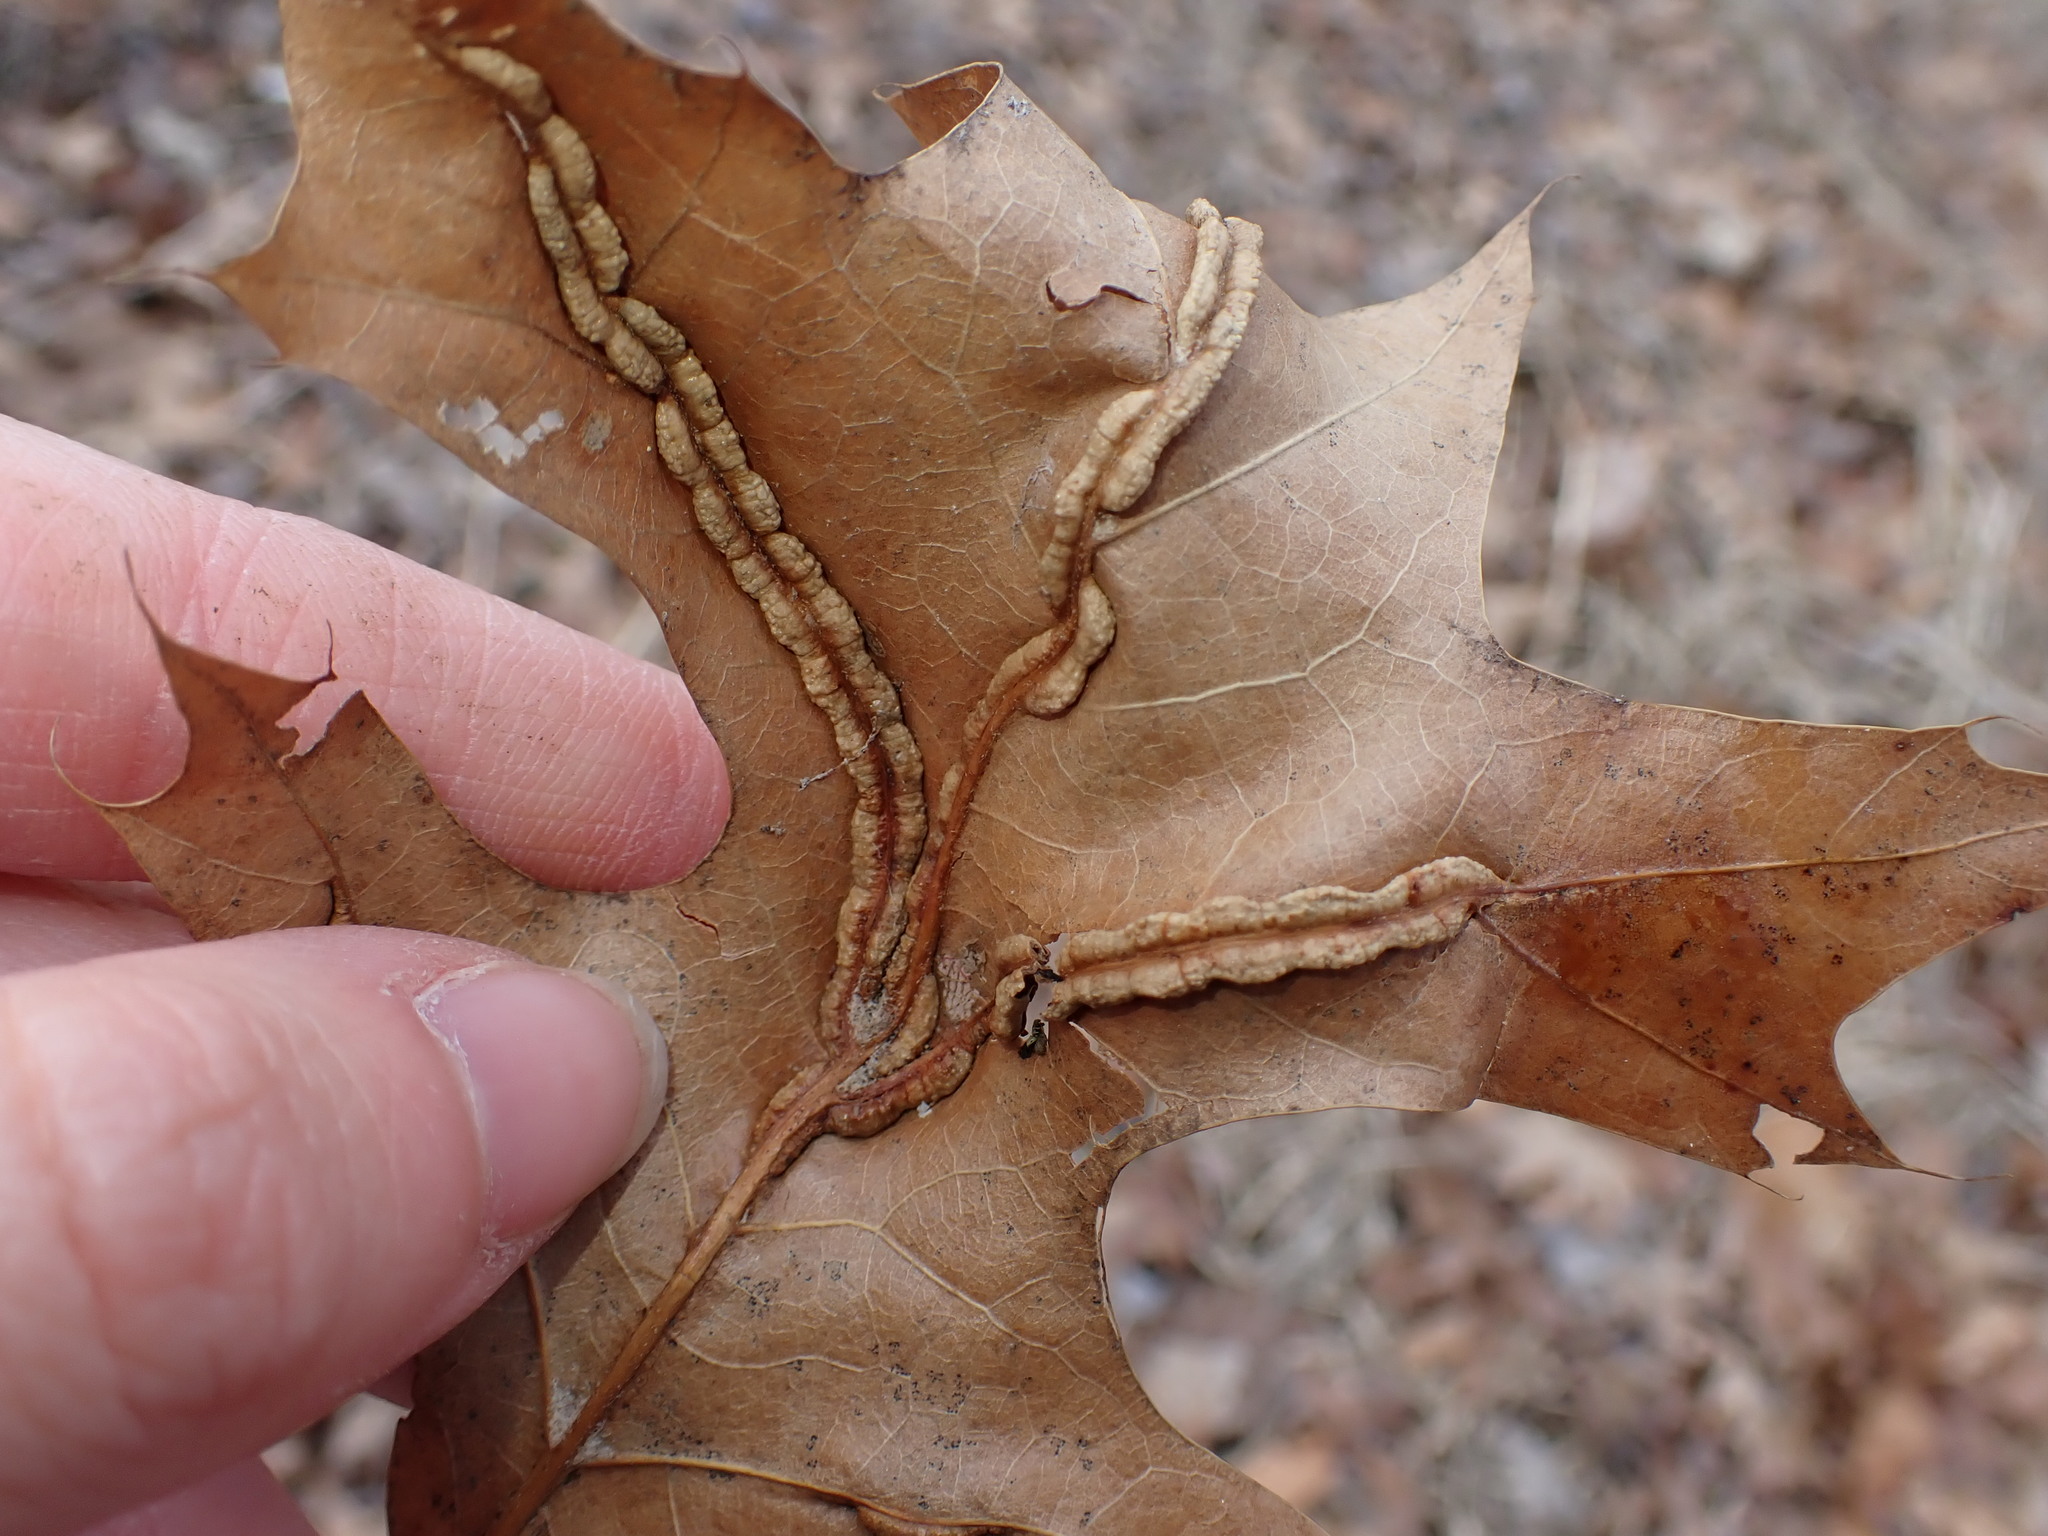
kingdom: Animalia
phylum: Arthropoda
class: Insecta
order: Diptera
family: Cecidomyiidae
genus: Macrodiplosis
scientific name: Macrodiplosis q-orucum
